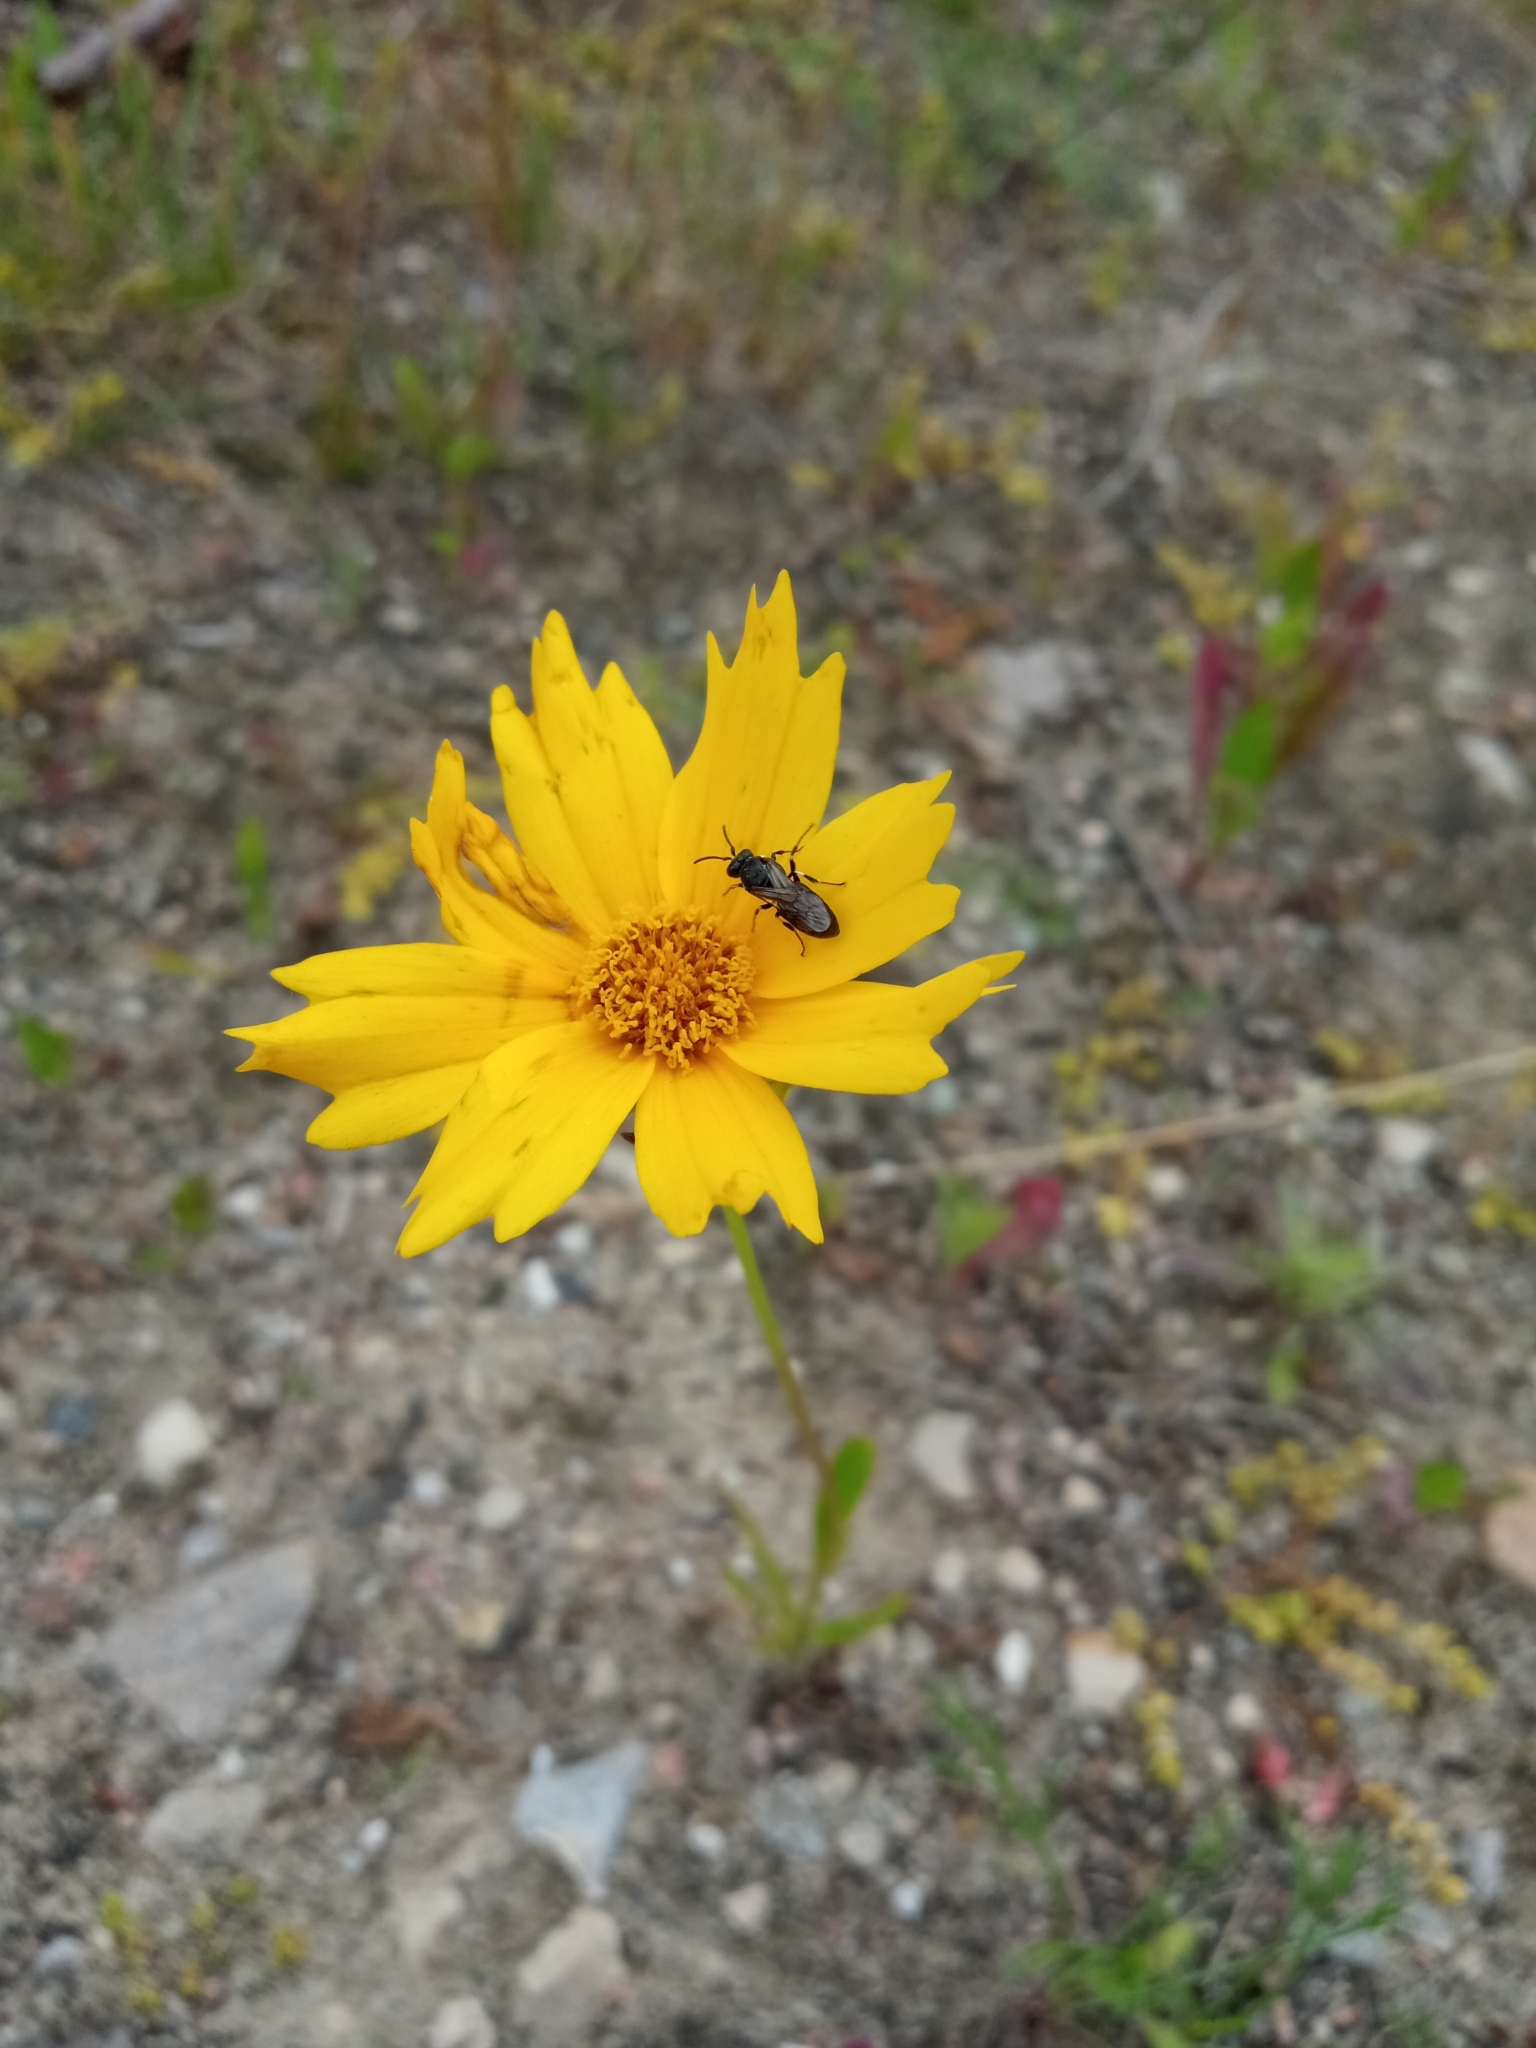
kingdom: Plantae
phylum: Tracheophyta
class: Magnoliopsida
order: Asterales
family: Asteraceae
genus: Coreopsis
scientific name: Coreopsis lanceolata
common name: Garden coreopsis
